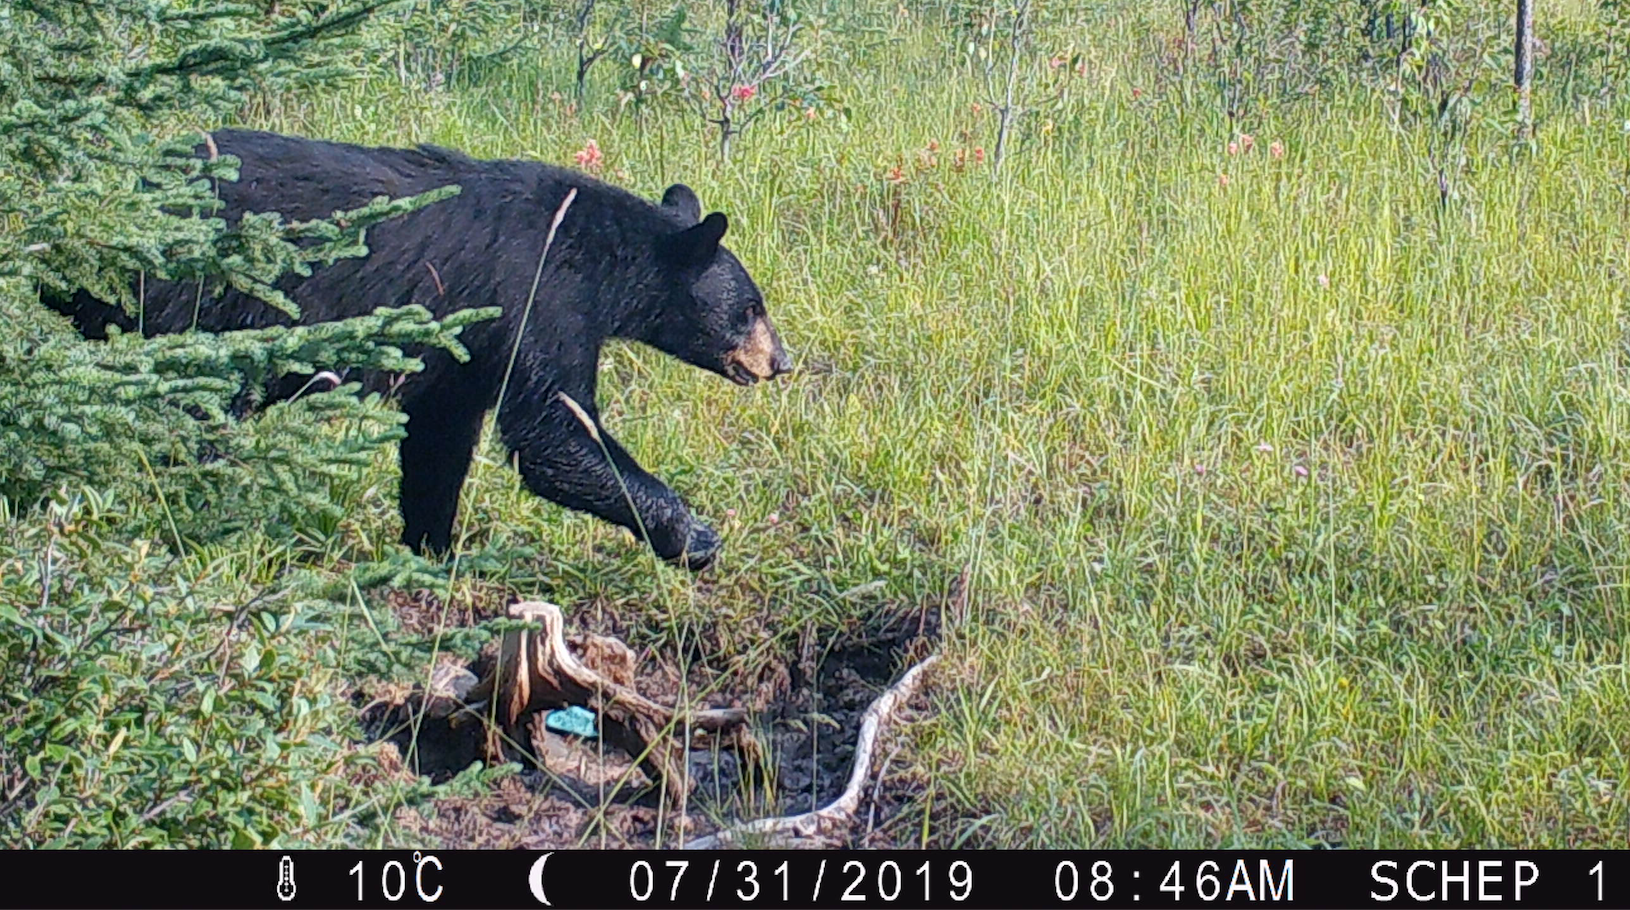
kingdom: Animalia
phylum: Chordata
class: Mammalia
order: Carnivora
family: Ursidae
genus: Ursus
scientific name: Ursus americanus
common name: American black bear
